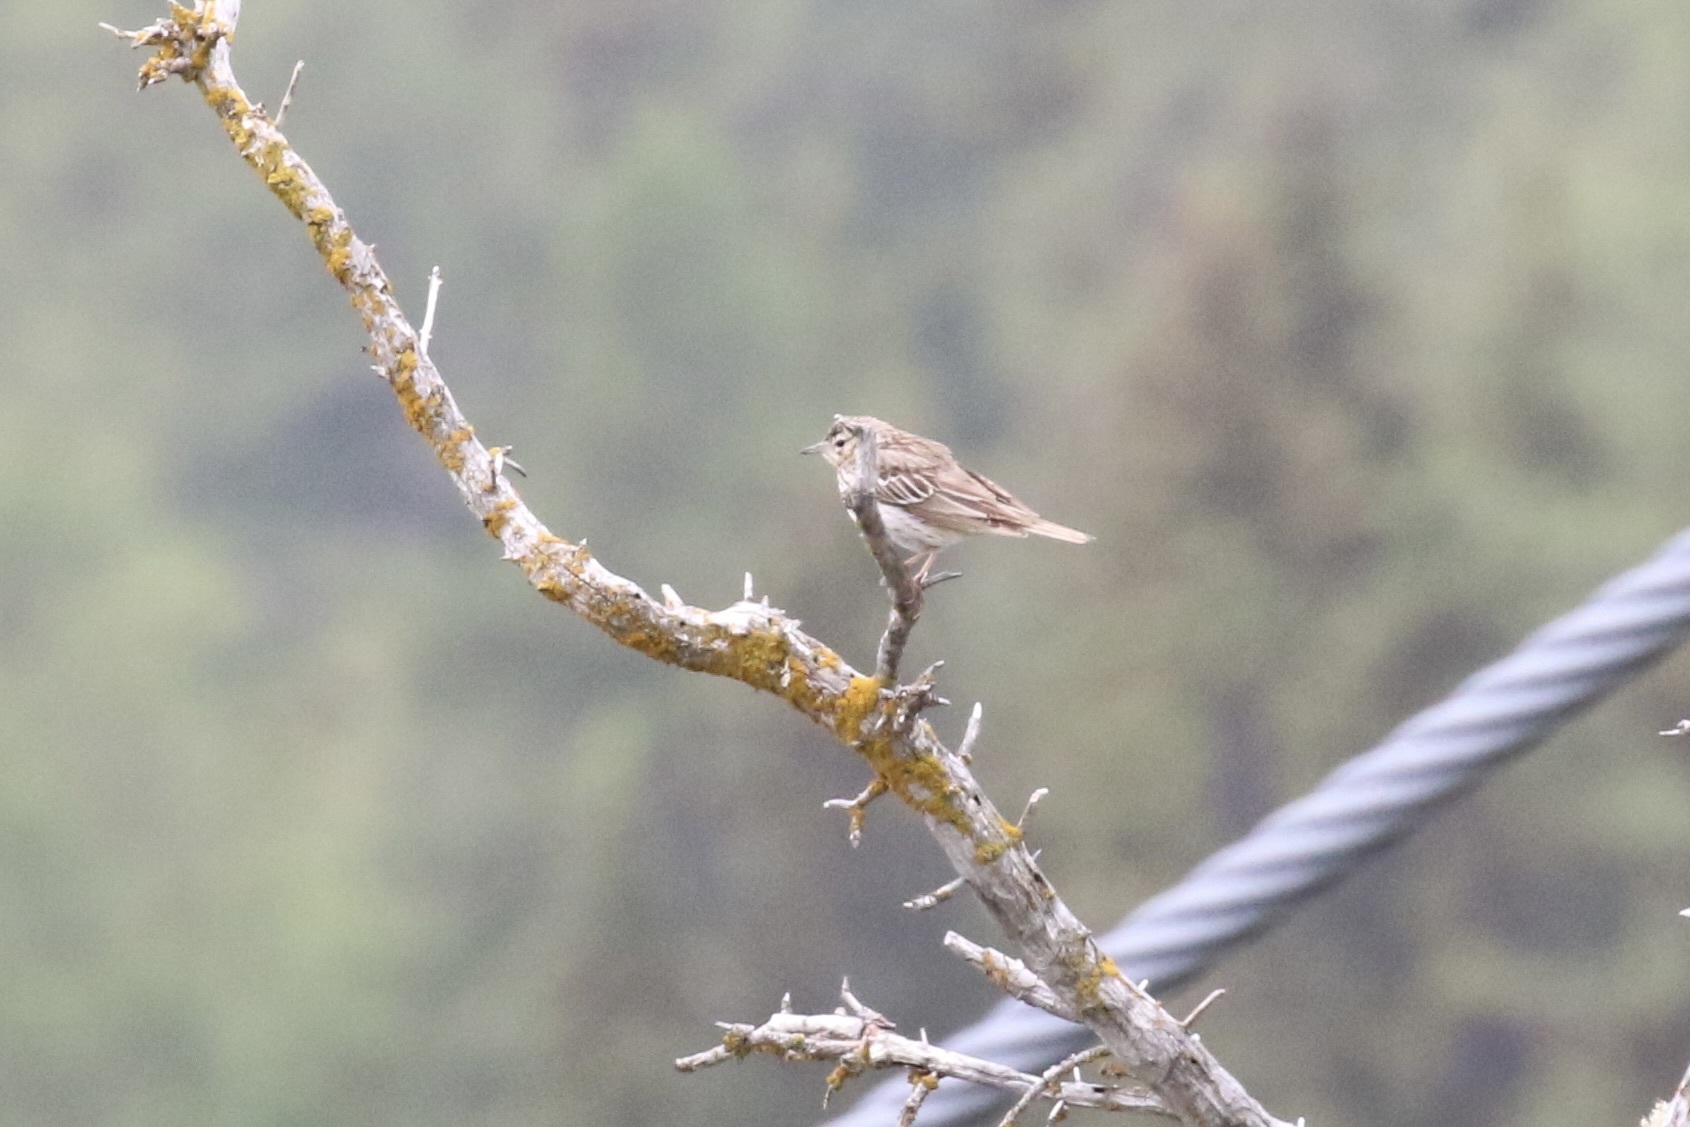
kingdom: Animalia
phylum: Chordata
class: Aves
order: Passeriformes
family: Motacillidae
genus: Anthus
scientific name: Anthus trivialis
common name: Tree pipit
